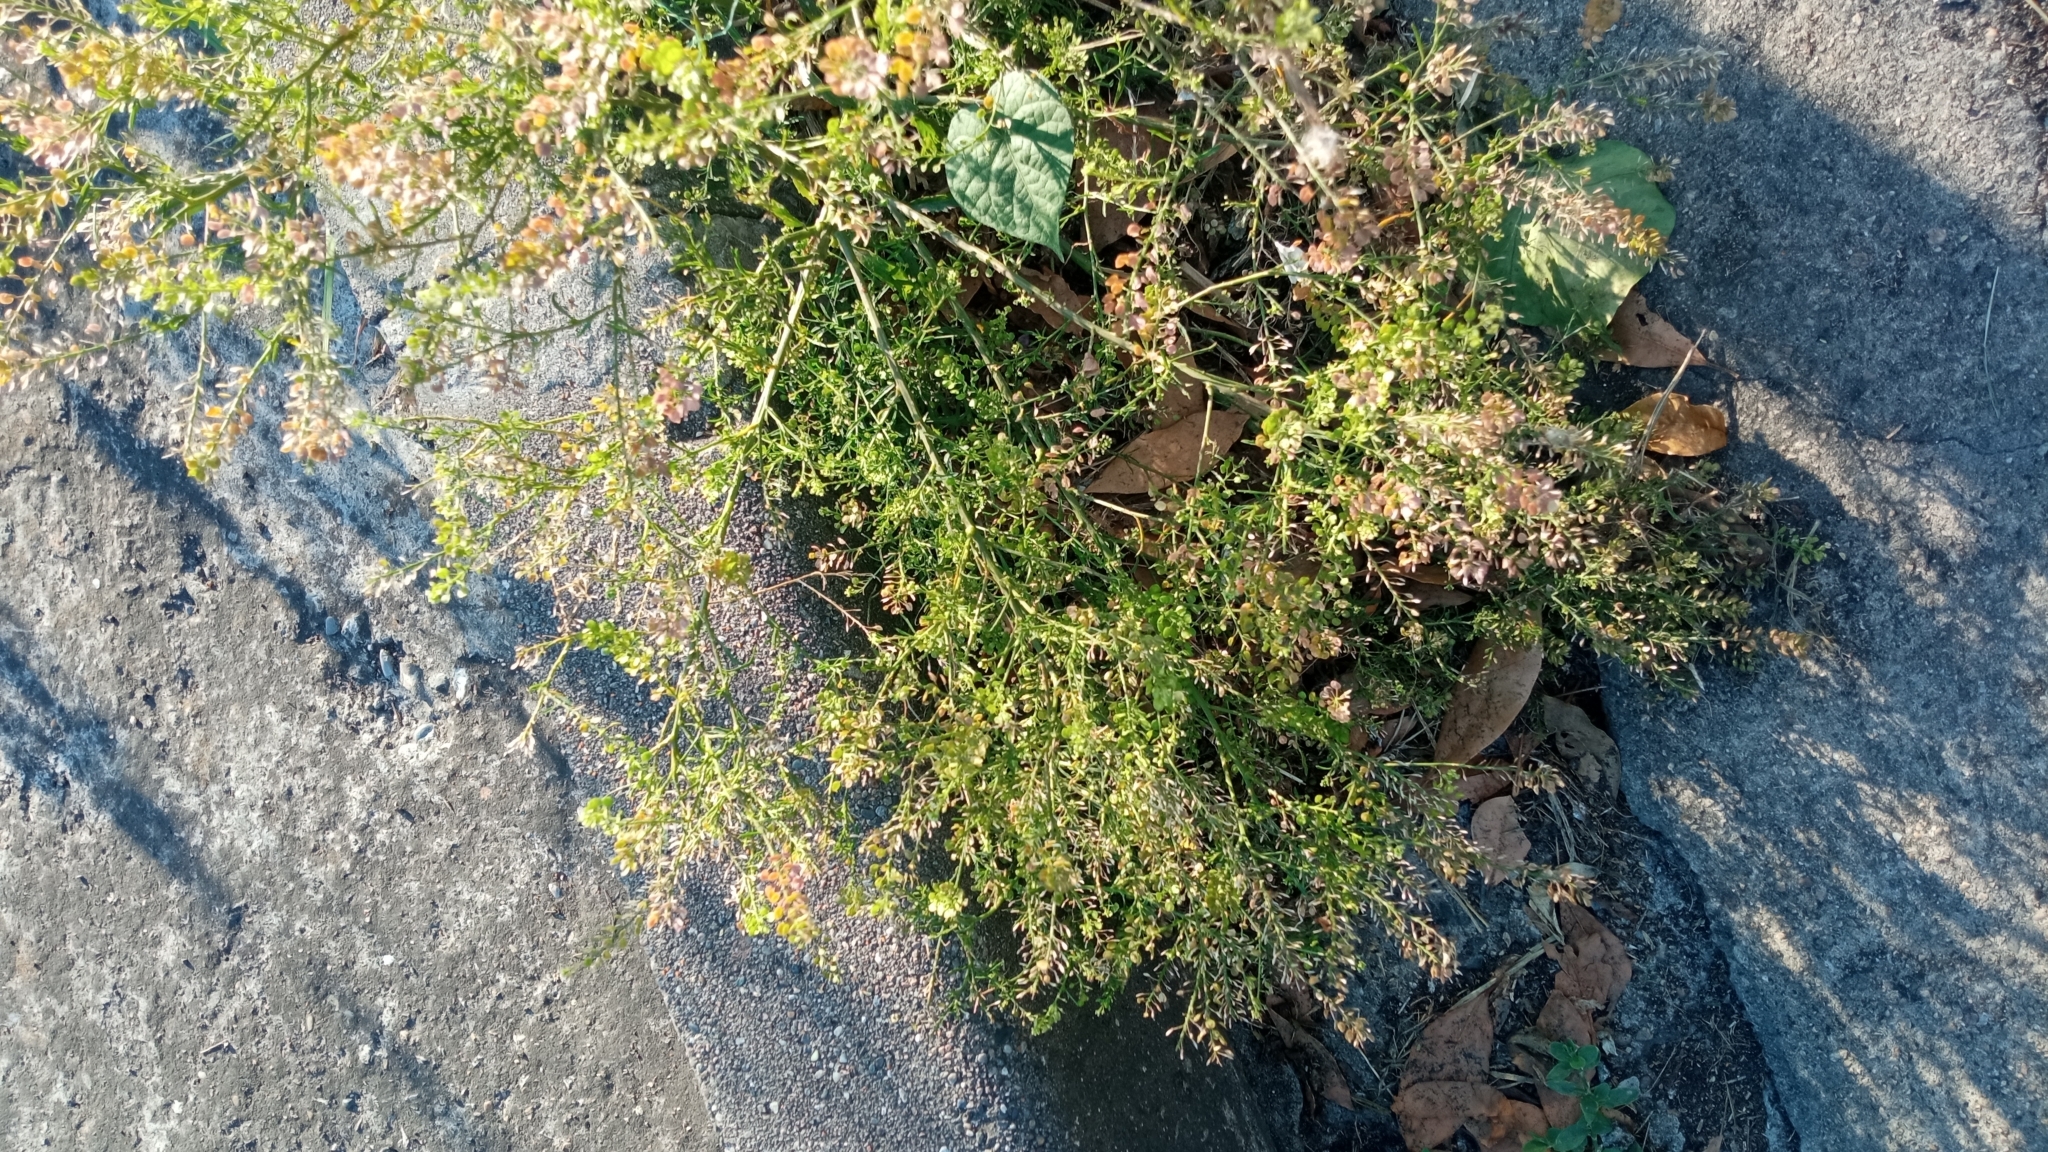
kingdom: Plantae
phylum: Tracheophyta
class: Magnoliopsida
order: Brassicales
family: Brassicaceae
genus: Lepidium
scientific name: Lepidium virginicum
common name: Least pepperwort
